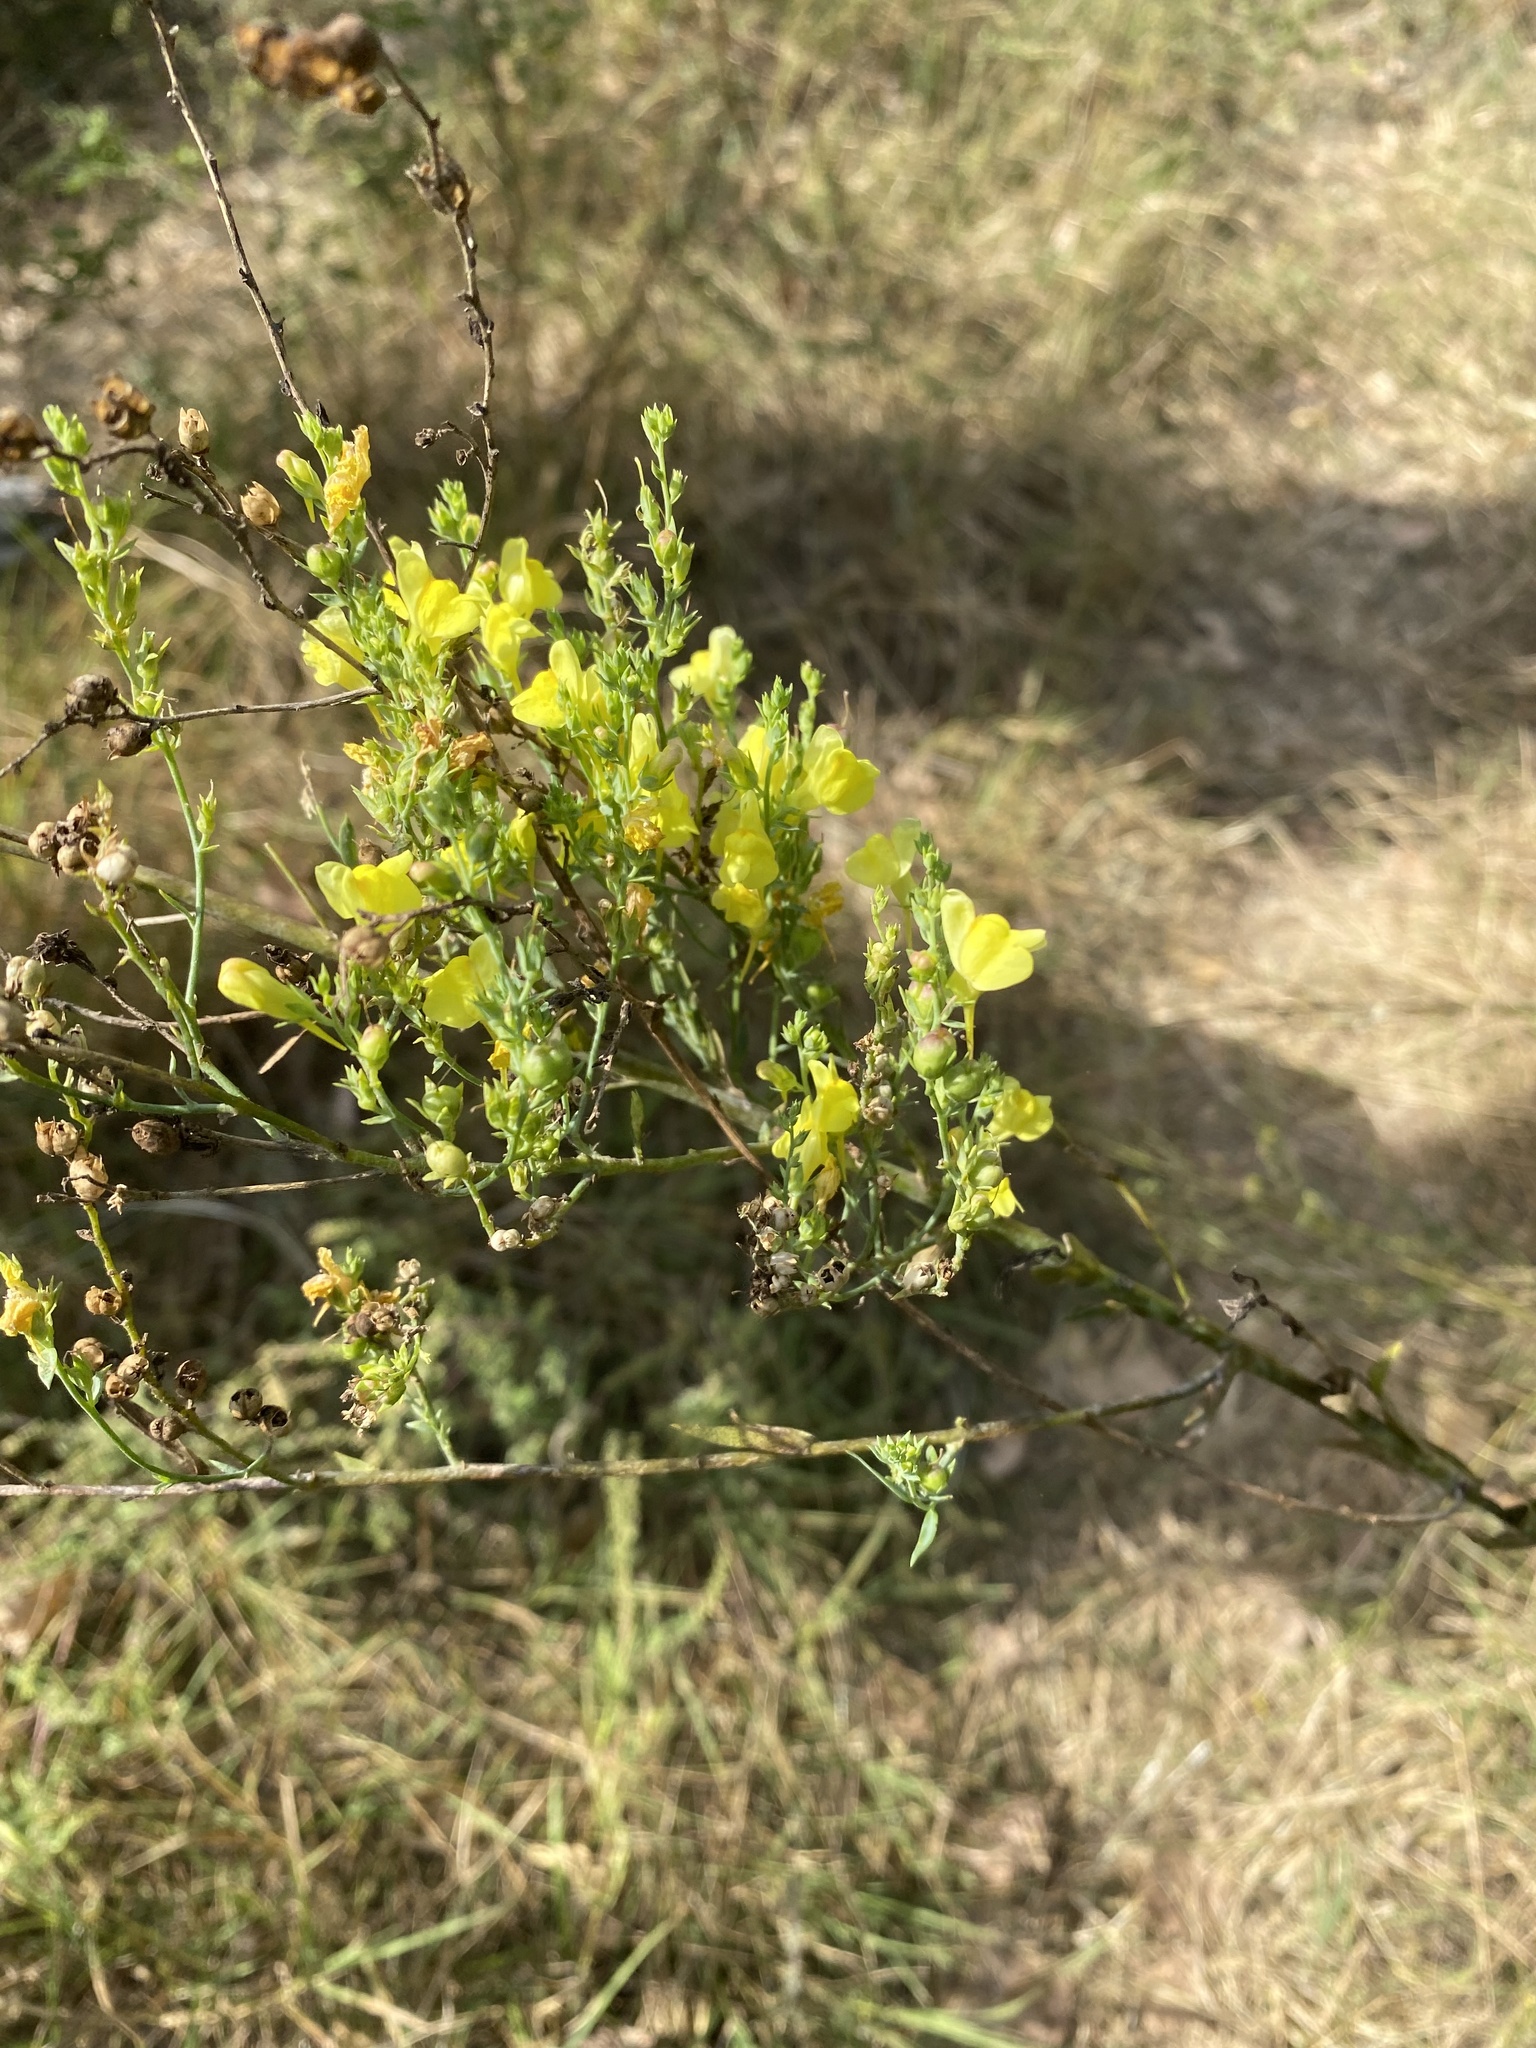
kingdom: Plantae
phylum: Tracheophyta
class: Magnoliopsida
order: Lamiales
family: Plantaginaceae
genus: Linaria
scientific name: Linaria genistifolia
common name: Broomleaf toadflax
